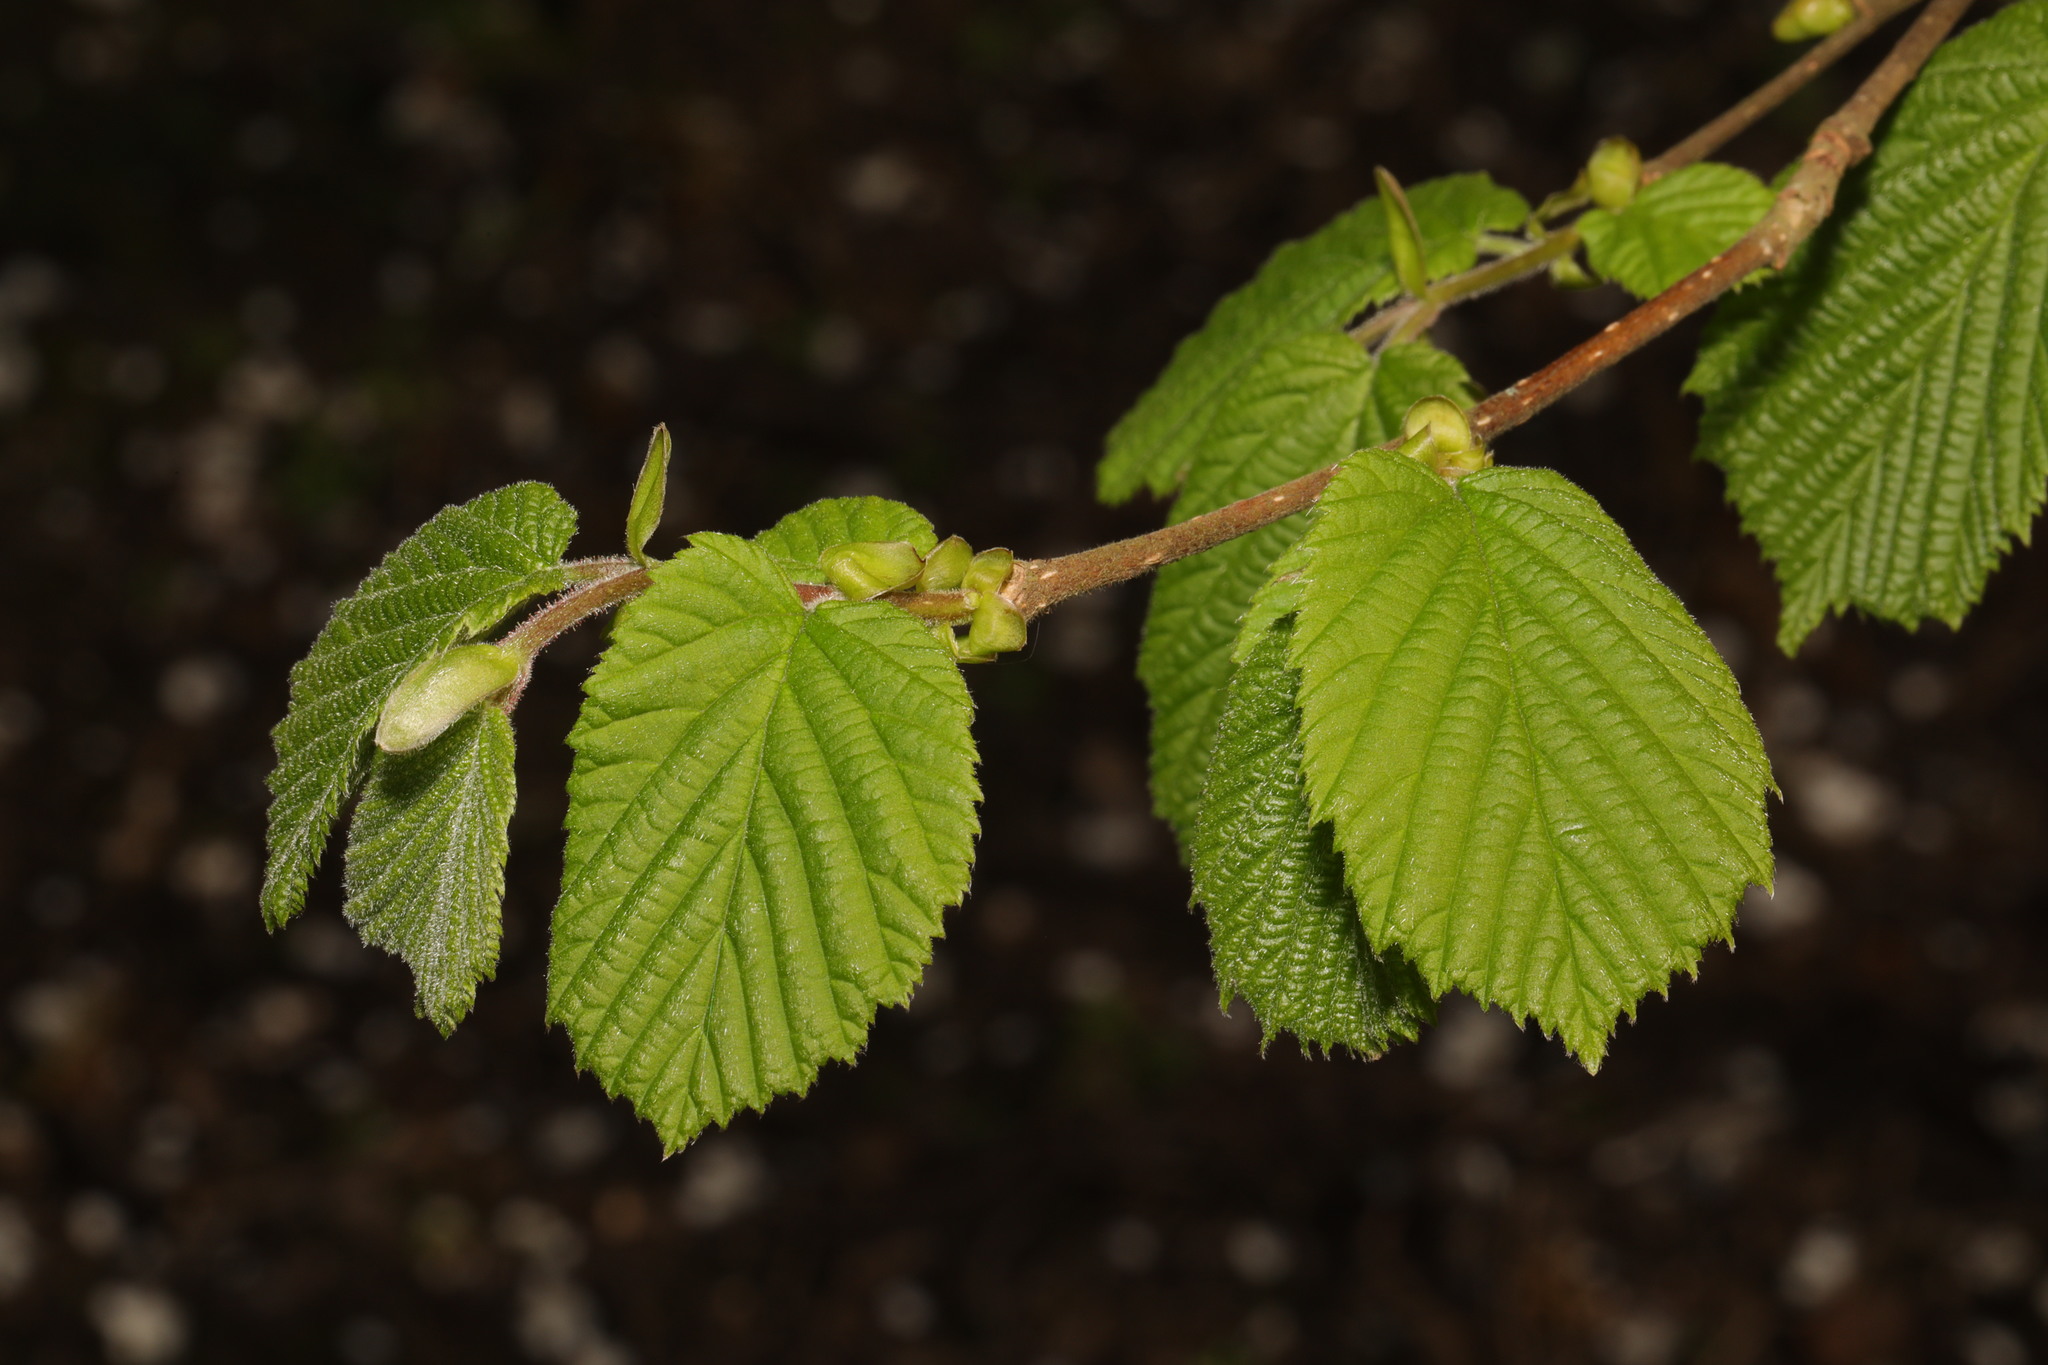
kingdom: Plantae
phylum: Tracheophyta
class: Magnoliopsida
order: Fagales
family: Betulaceae
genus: Corylus
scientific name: Corylus avellana
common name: European hazel
